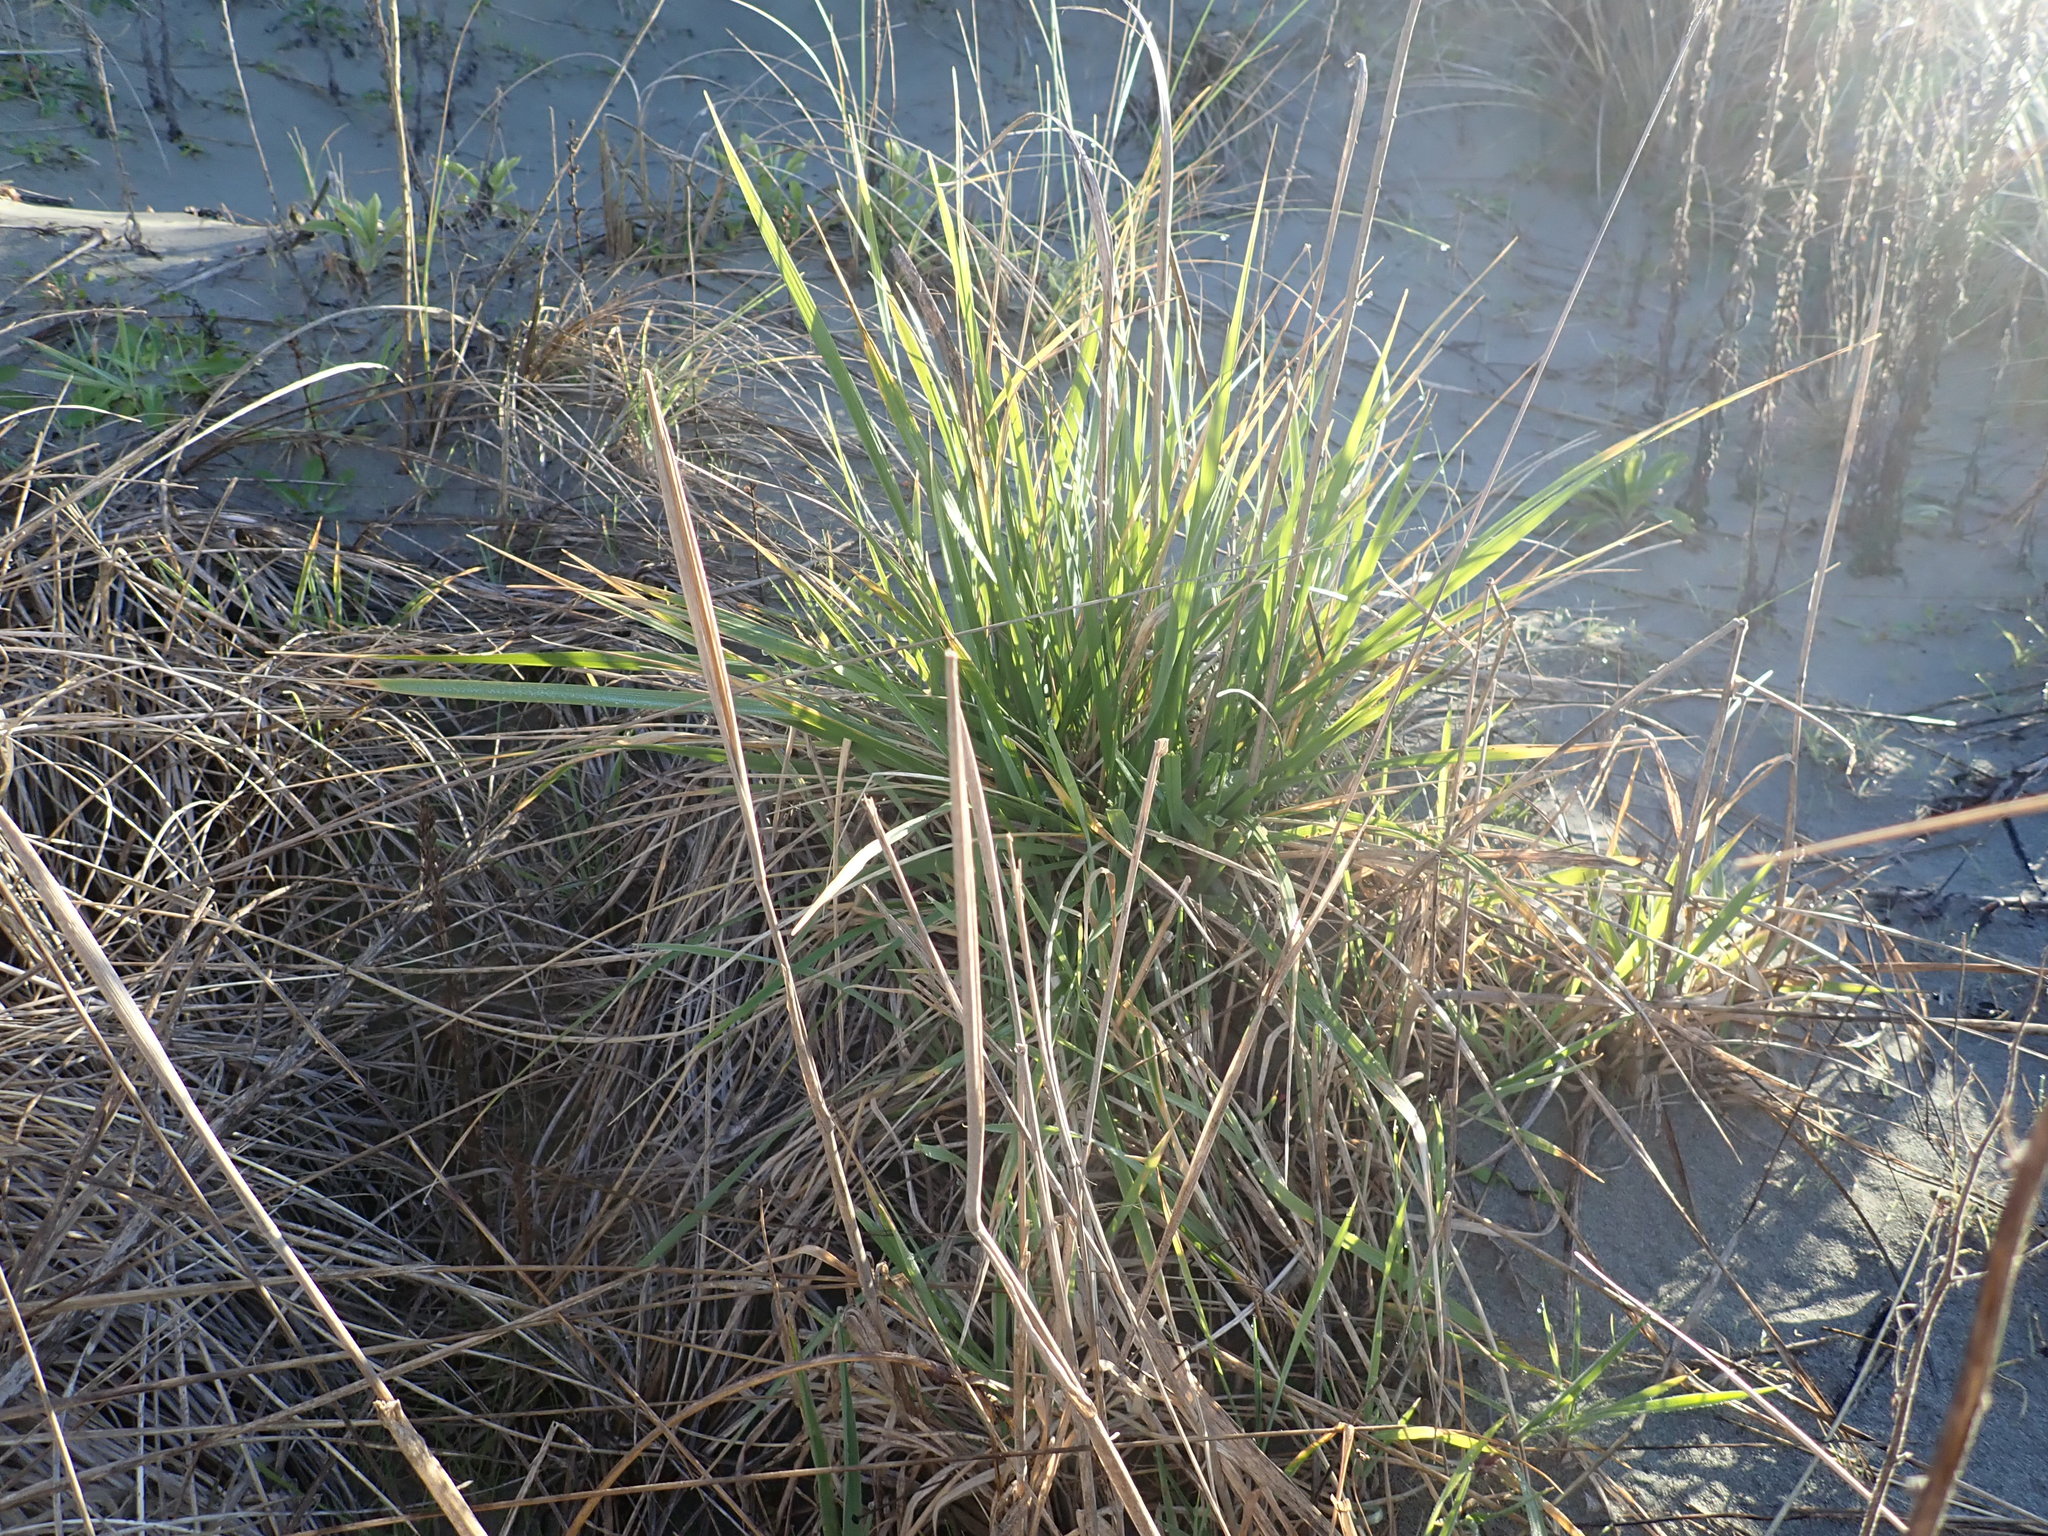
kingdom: Plantae
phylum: Tracheophyta
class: Liliopsida
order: Poales
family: Poaceae
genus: Lachnagrostis
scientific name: Lachnagrostis billardierei
